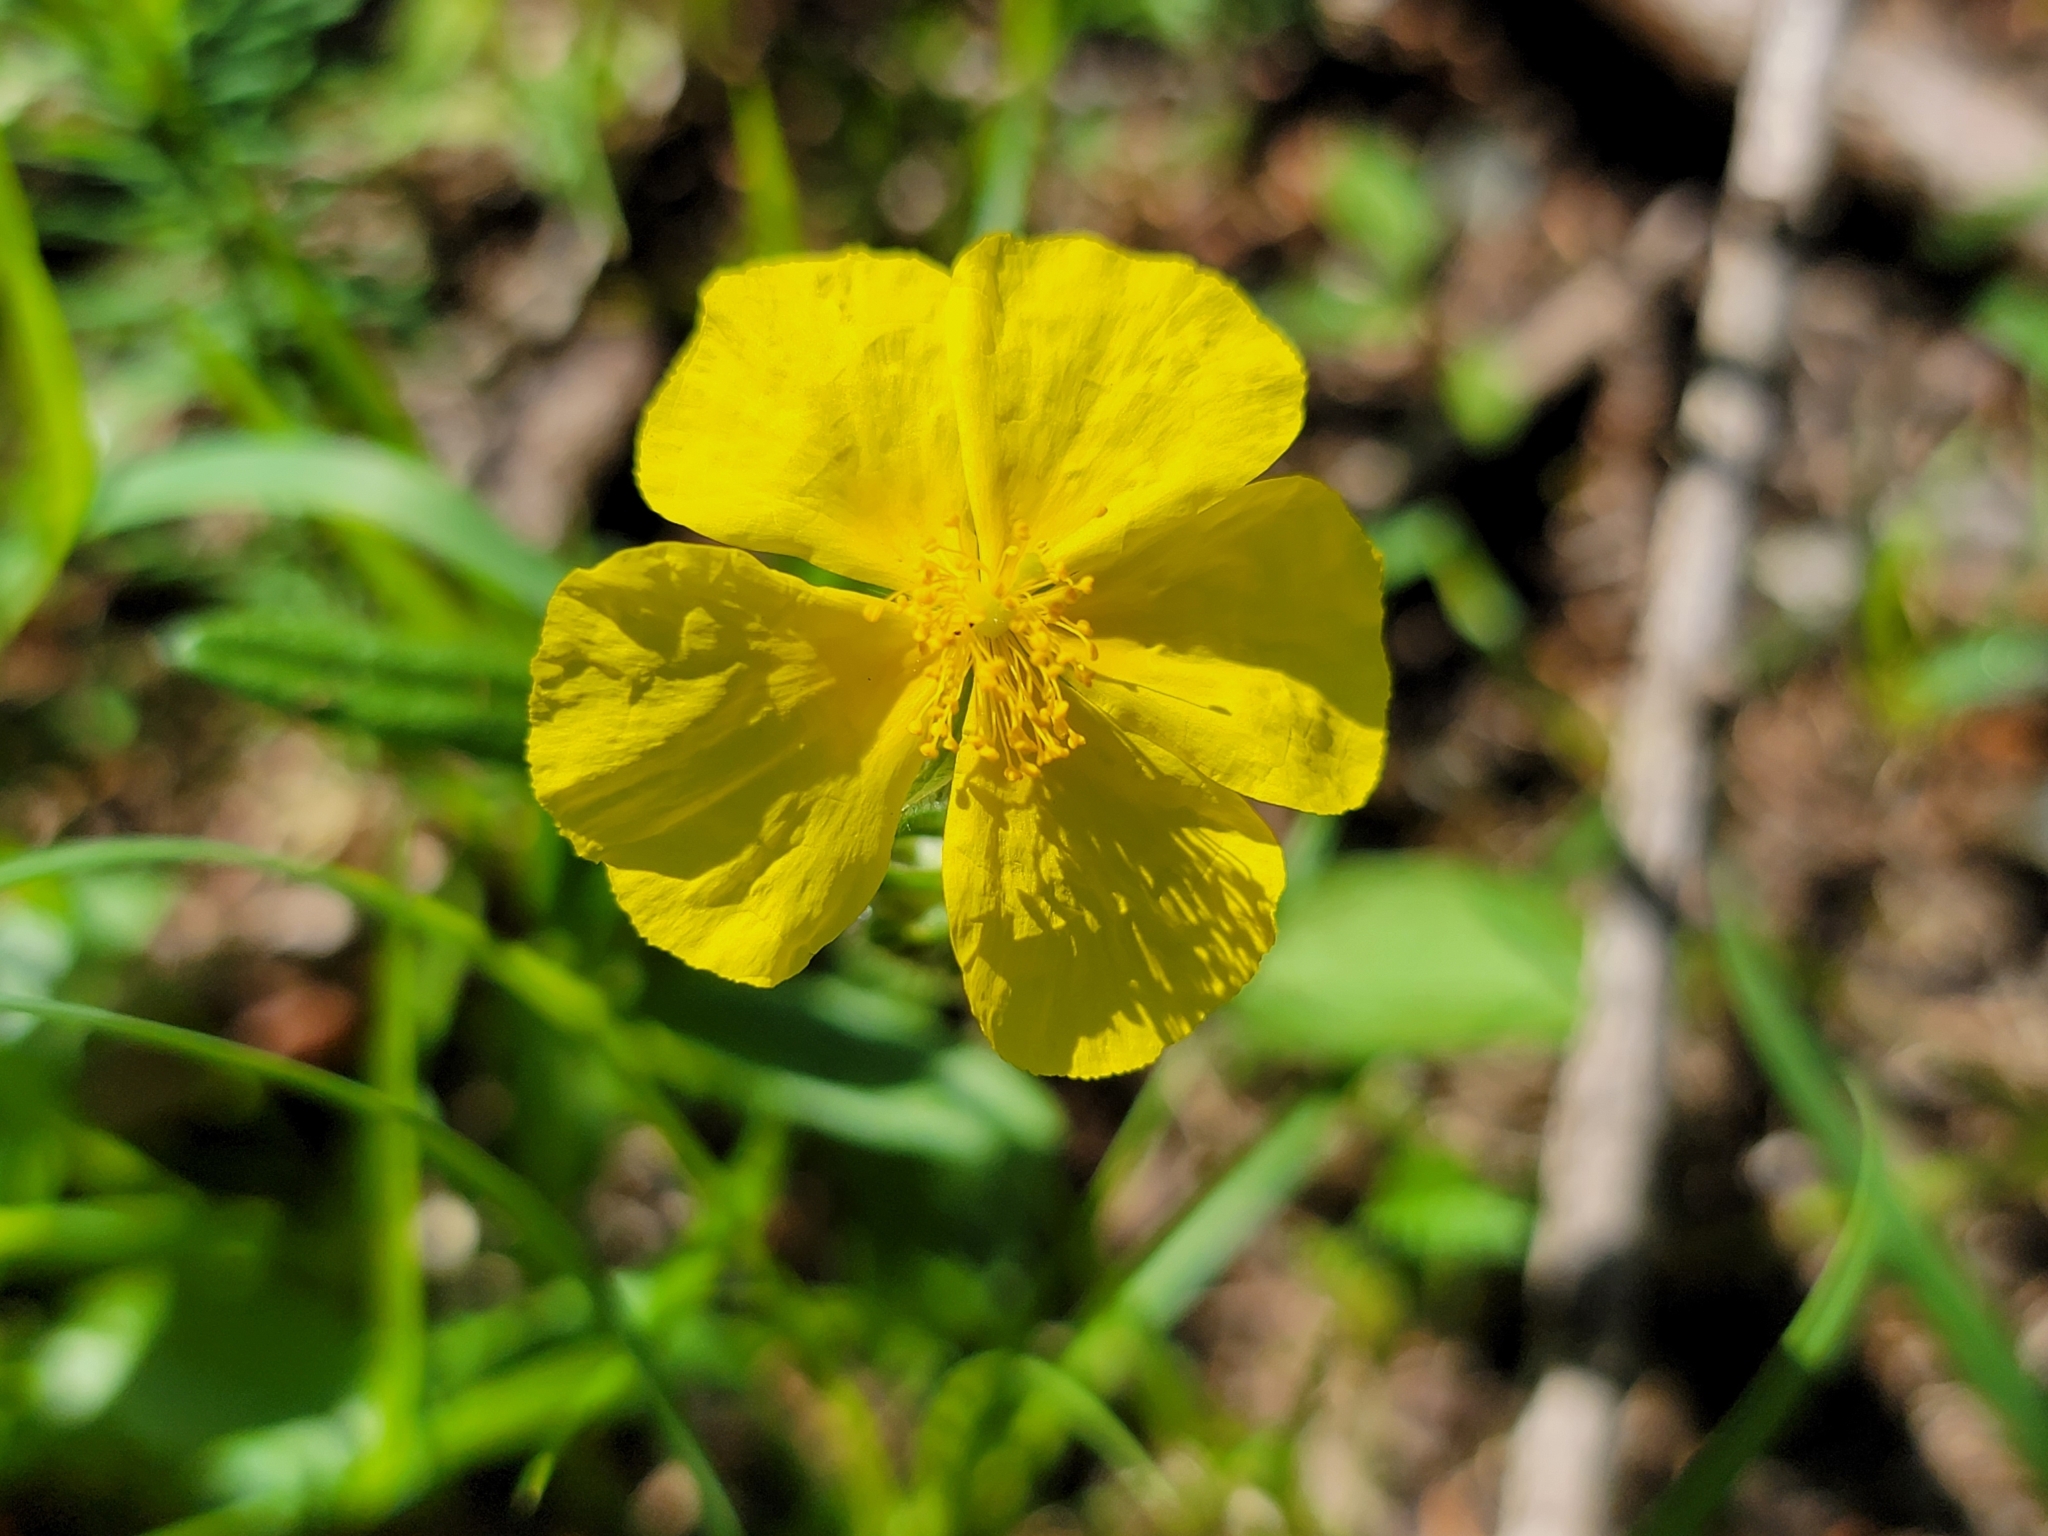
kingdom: Plantae
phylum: Tracheophyta
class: Magnoliopsida
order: Malvales
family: Cistaceae
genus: Helianthemum
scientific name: Helianthemum nummularium
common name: Common rock-rose
